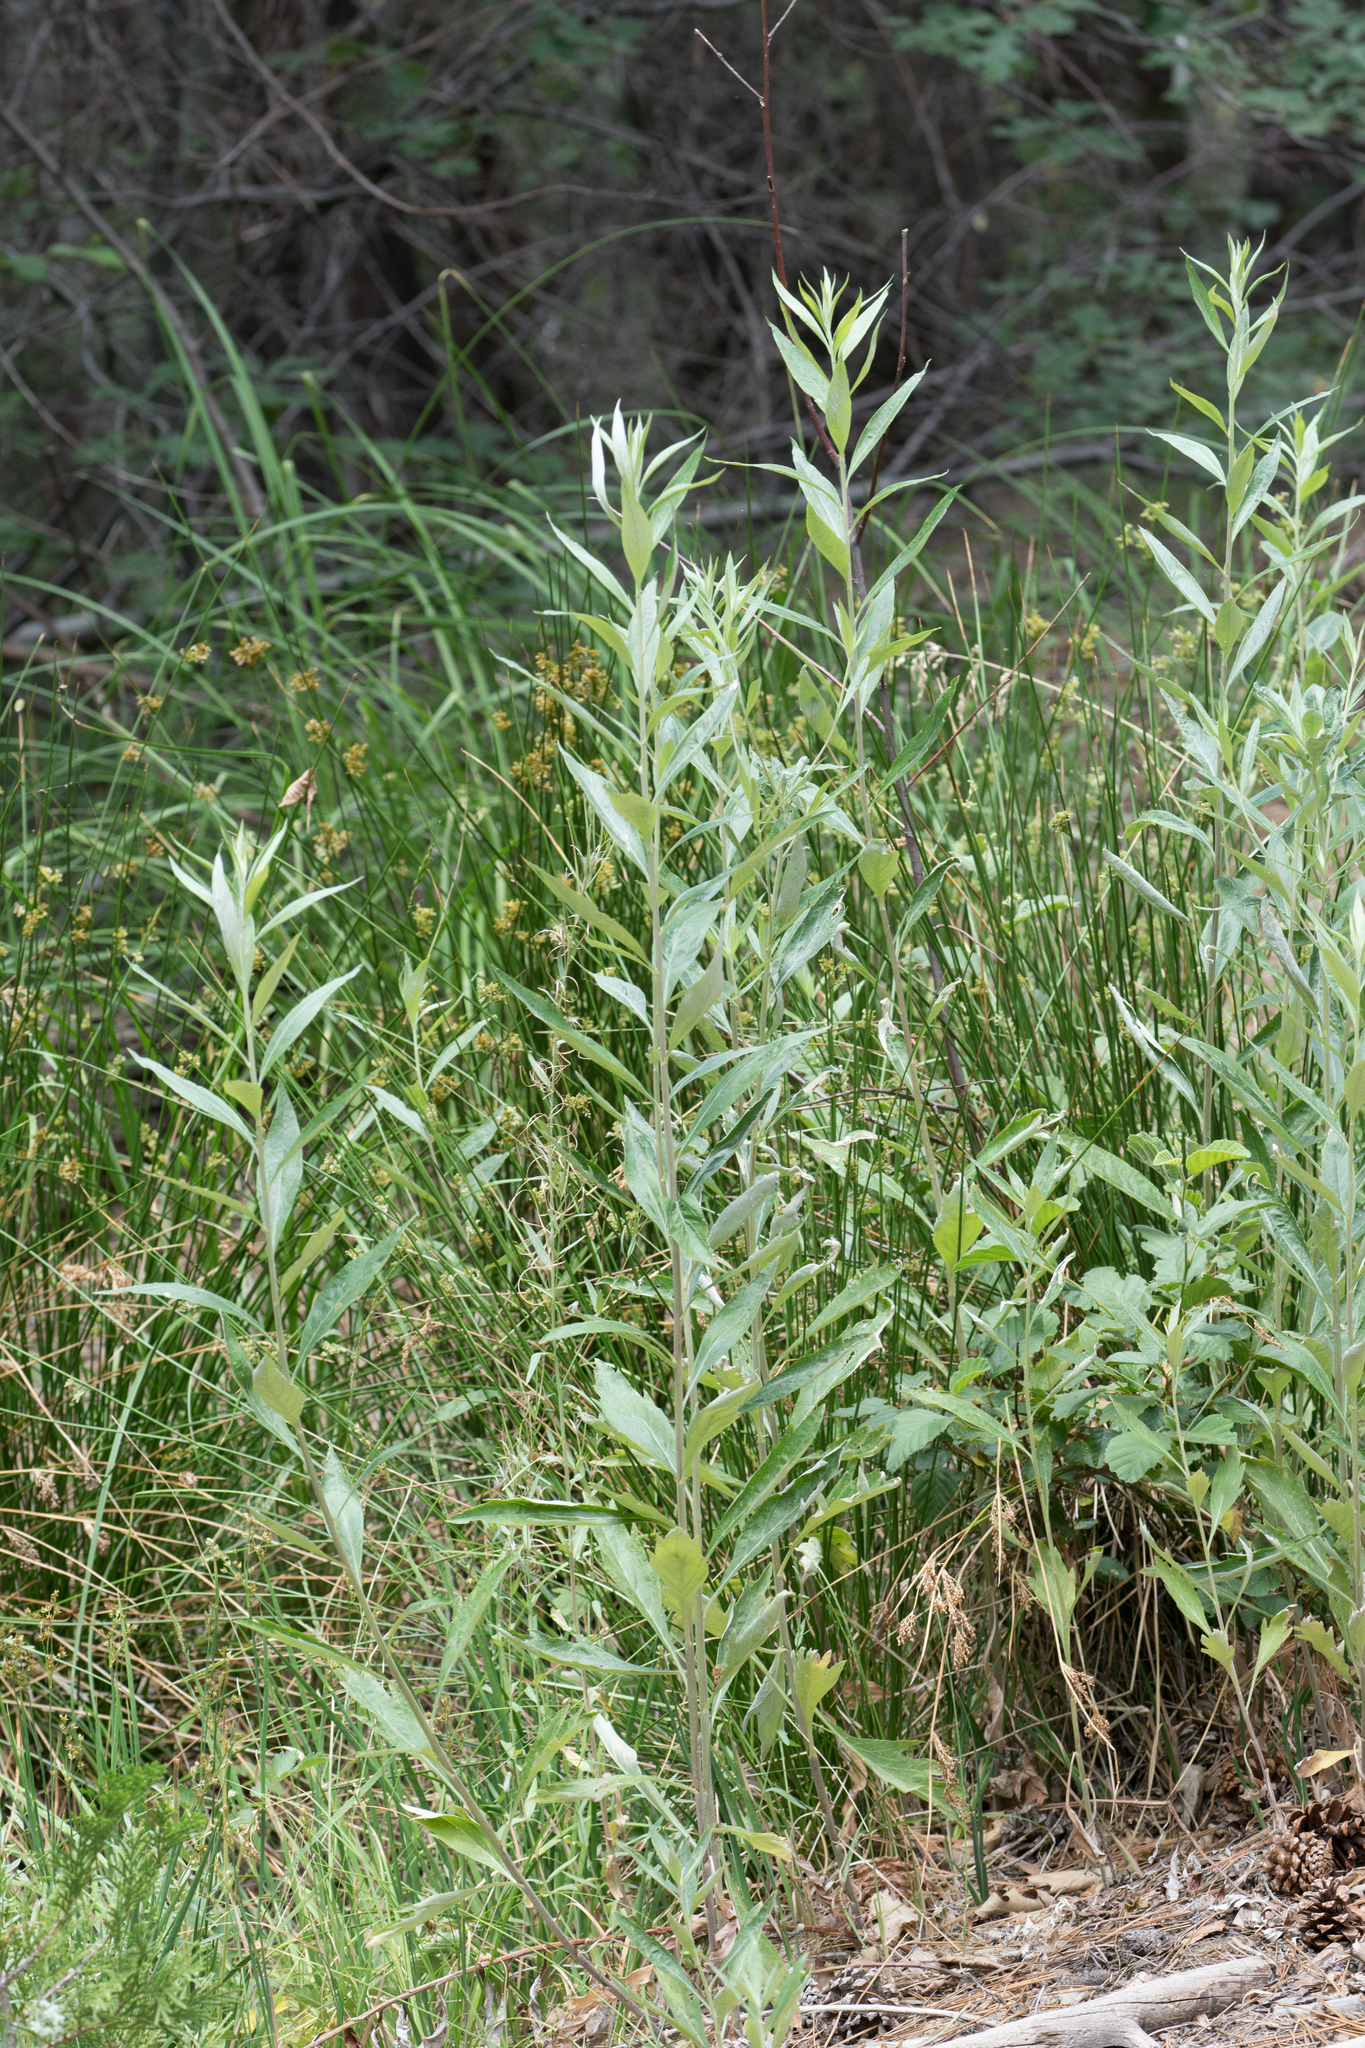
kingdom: Plantae
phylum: Tracheophyta
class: Magnoliopsida
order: Asterales
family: Asteraceae
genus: Artemisia
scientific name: Artemisia douglasiana
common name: Northwest mugwort
